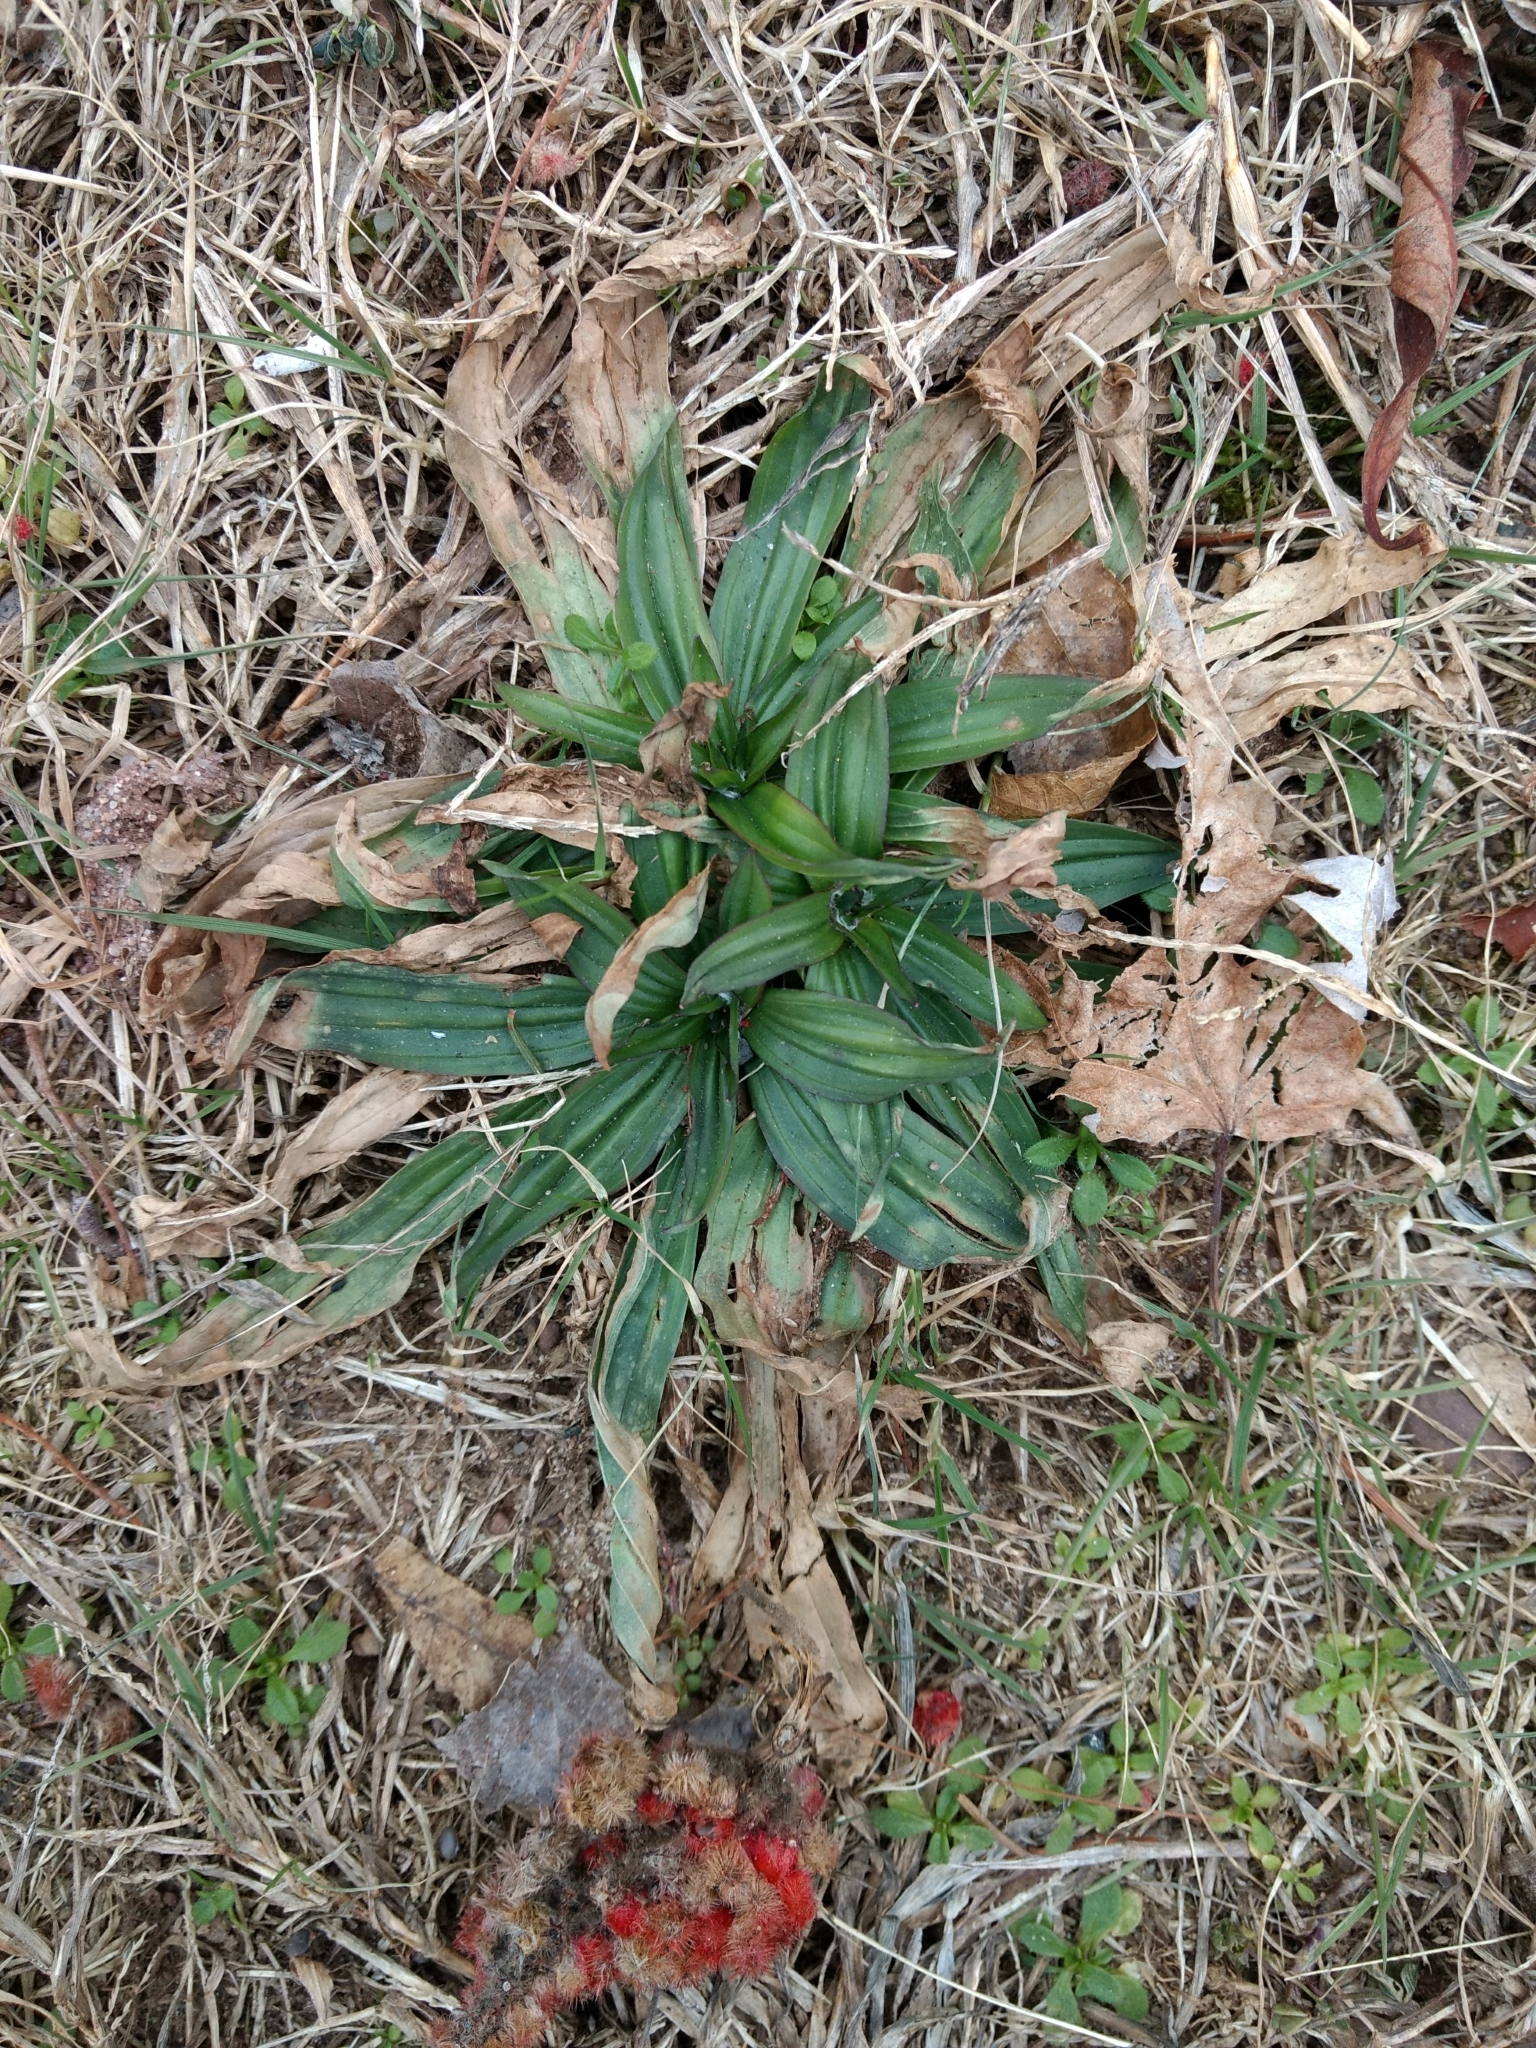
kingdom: Plantae
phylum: Tracheophyta
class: Magnoliopsida
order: Lamiales
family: Plantaginaceae
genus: Plantago
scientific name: Plantago lanceolata
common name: Ribwort plantain
